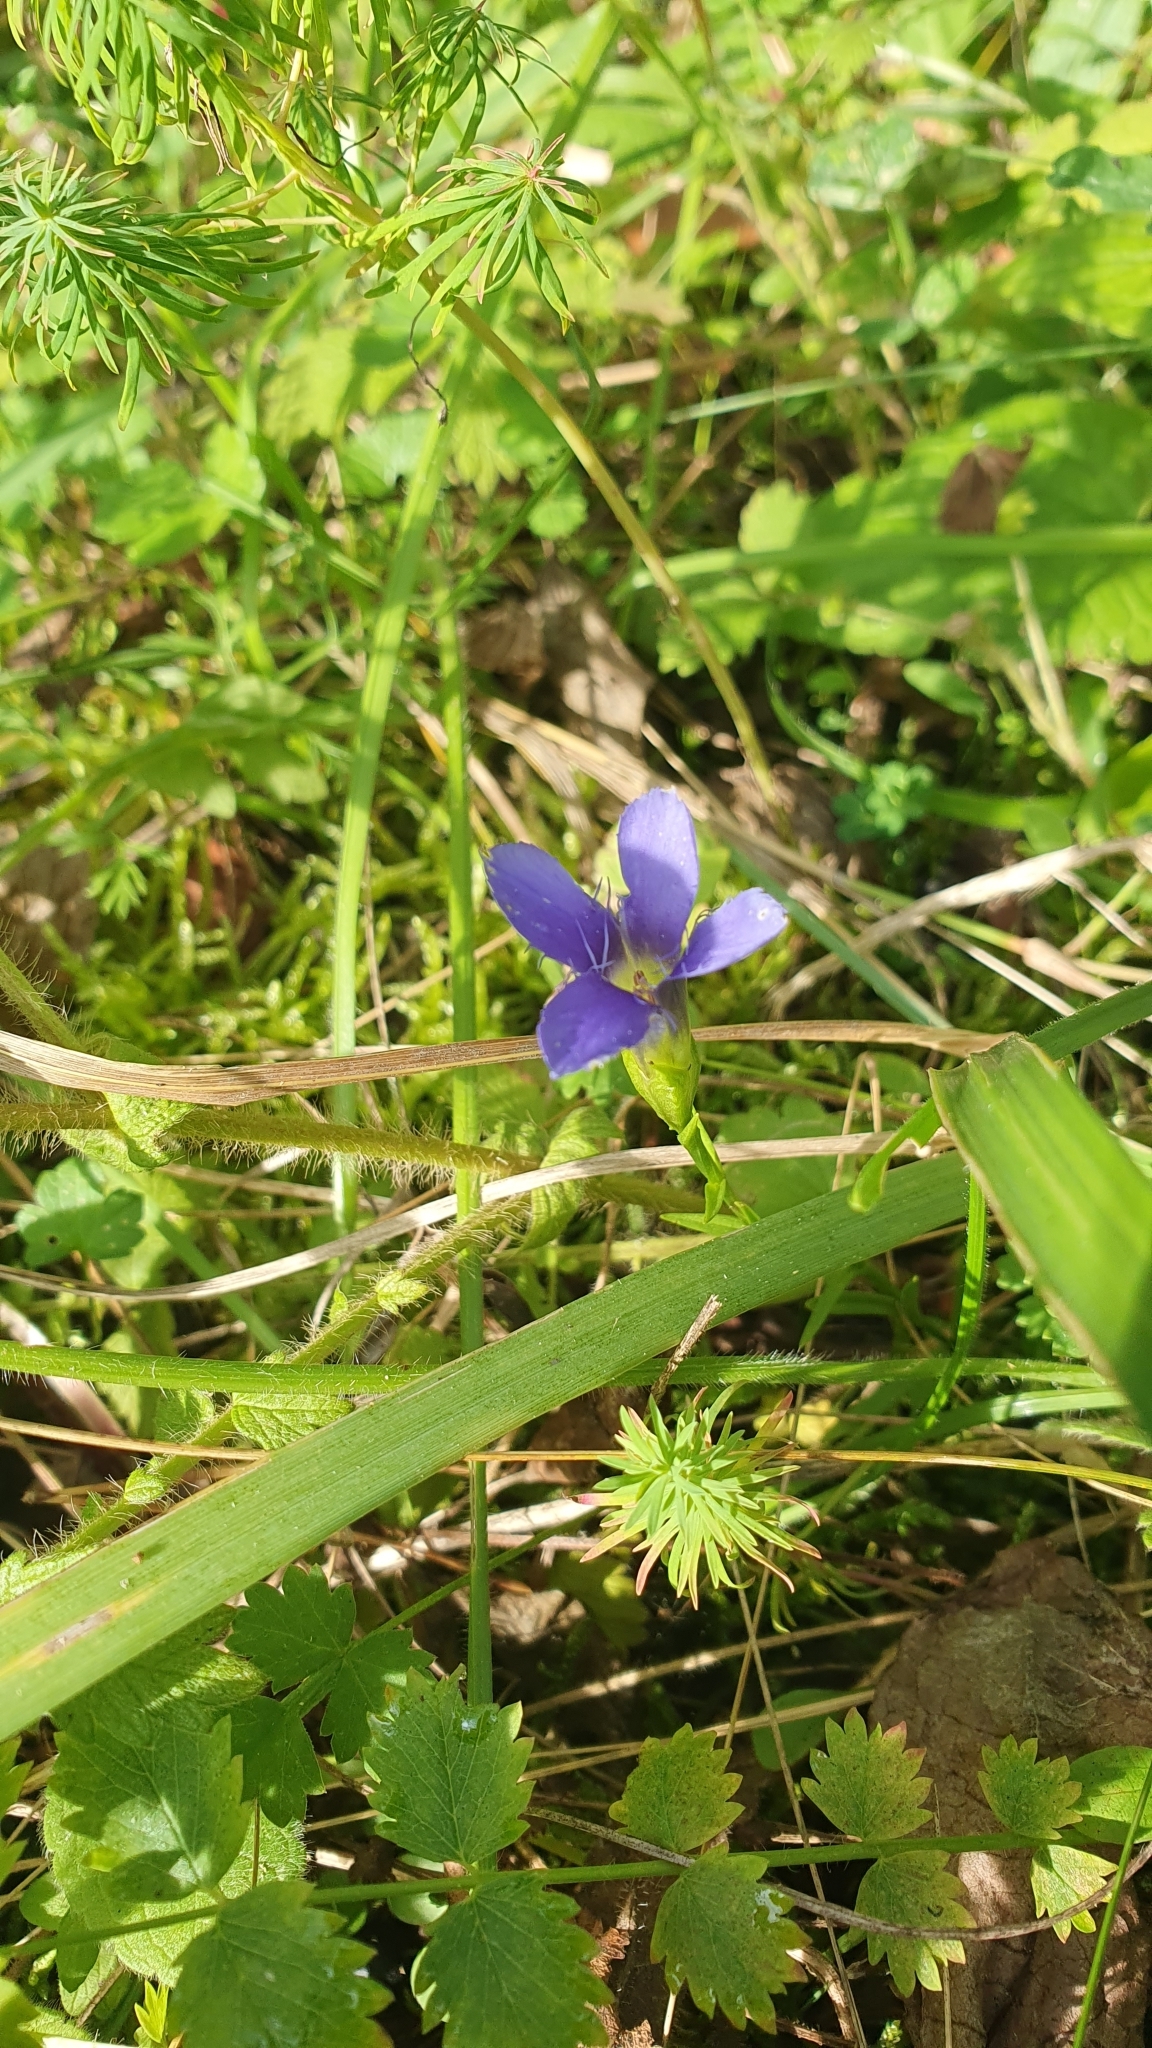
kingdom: Plantae
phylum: Tracheophyta
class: Magnoliopsida
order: Gentianales
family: Gentianaceae
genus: Gentianopsis
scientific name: Gentianopsis ciliata
